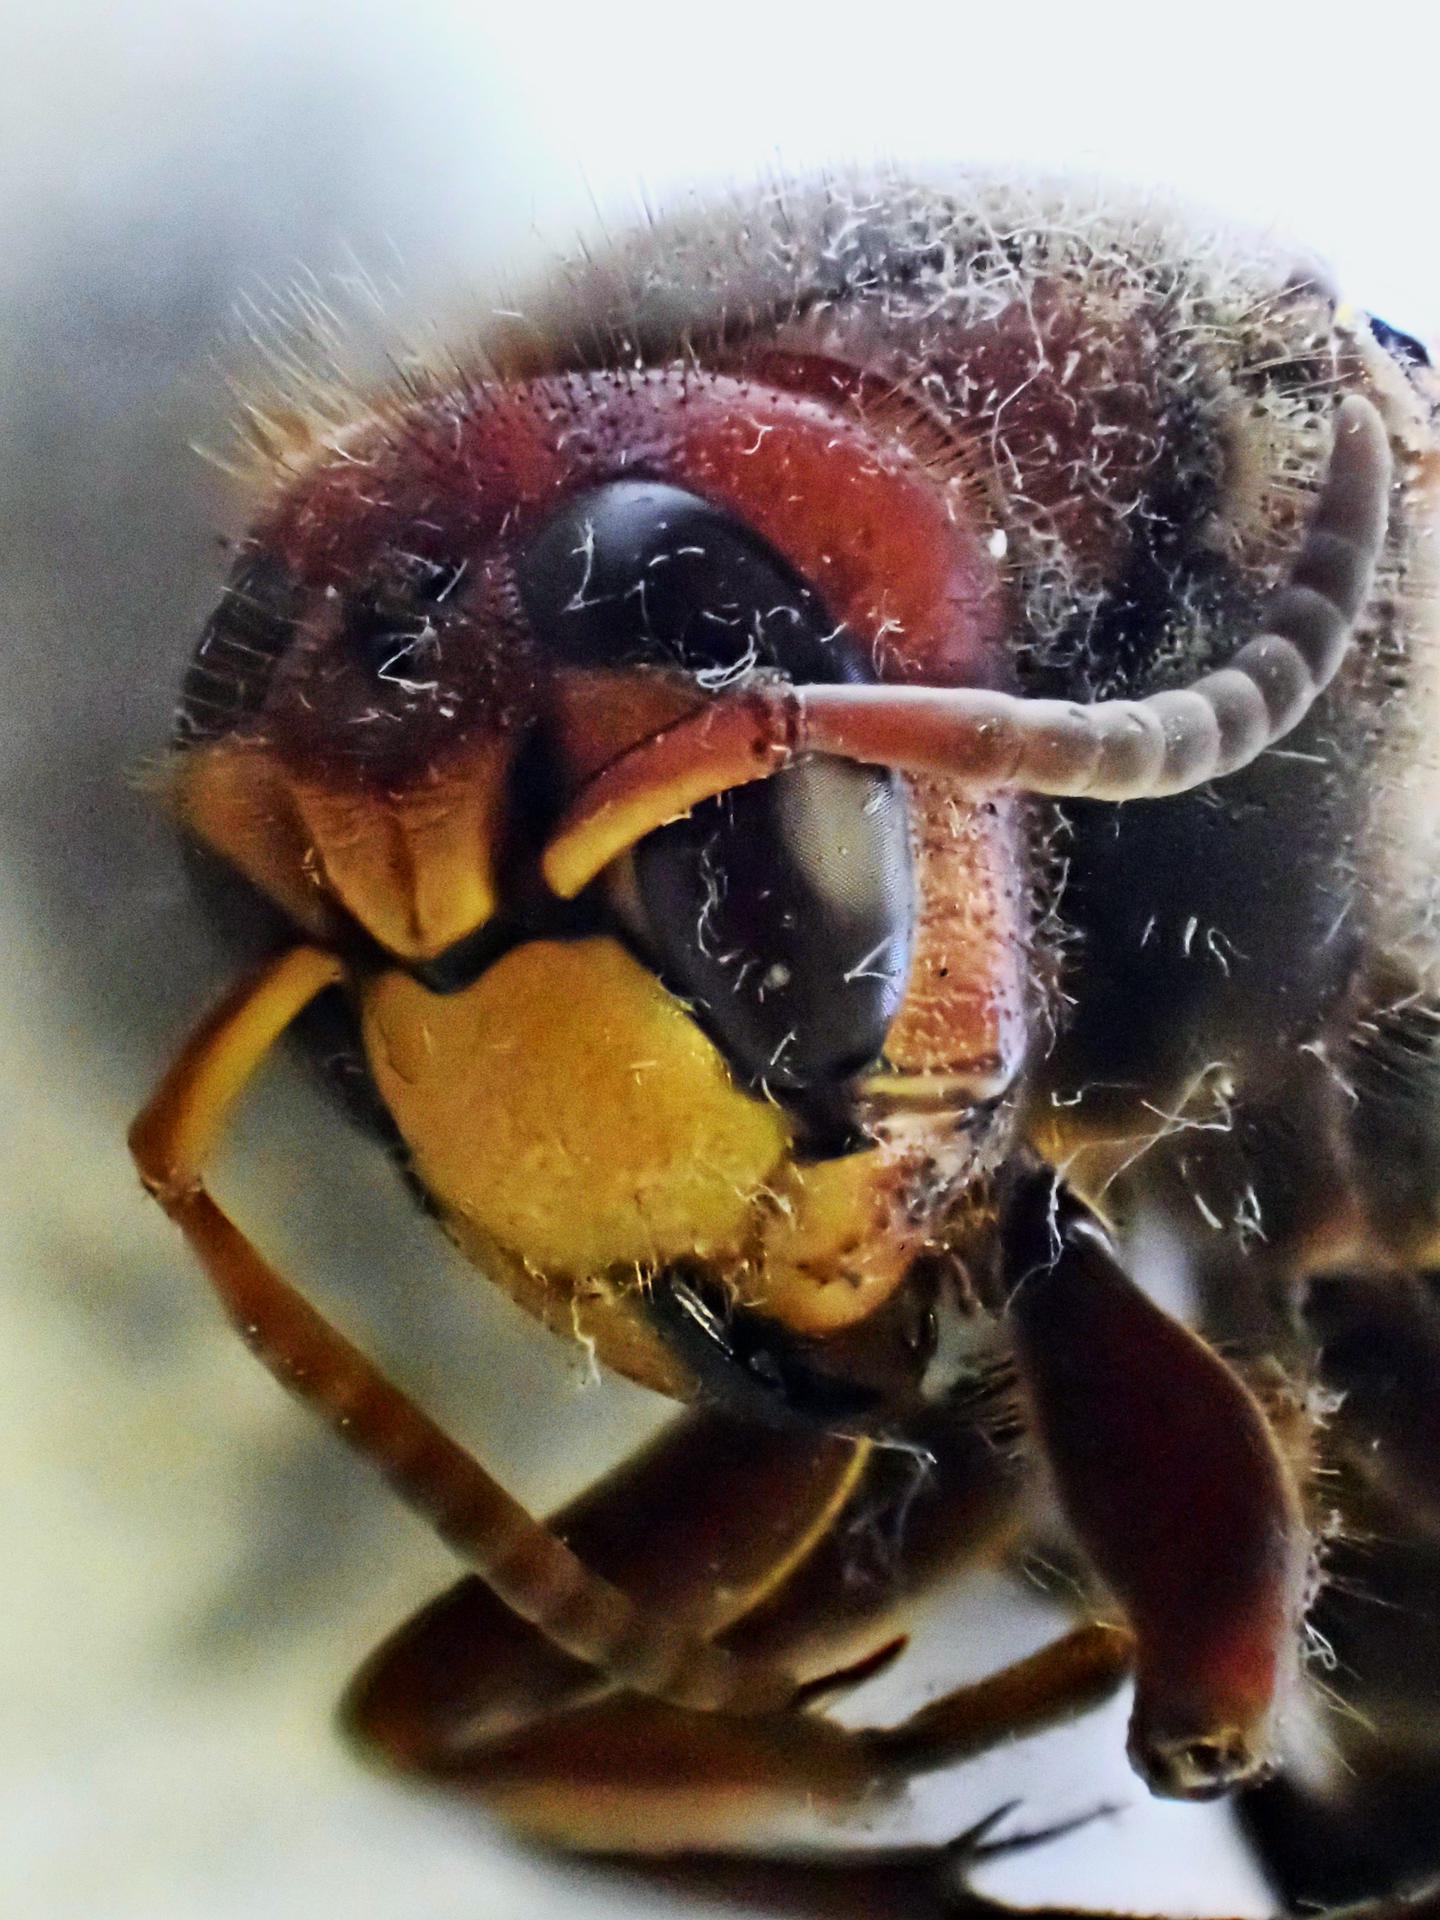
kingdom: Animalia
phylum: Arthropoda
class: Insecta
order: Hymenoptera
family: Vespidae
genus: Vespa
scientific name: Vespa crabro
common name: Hornet
